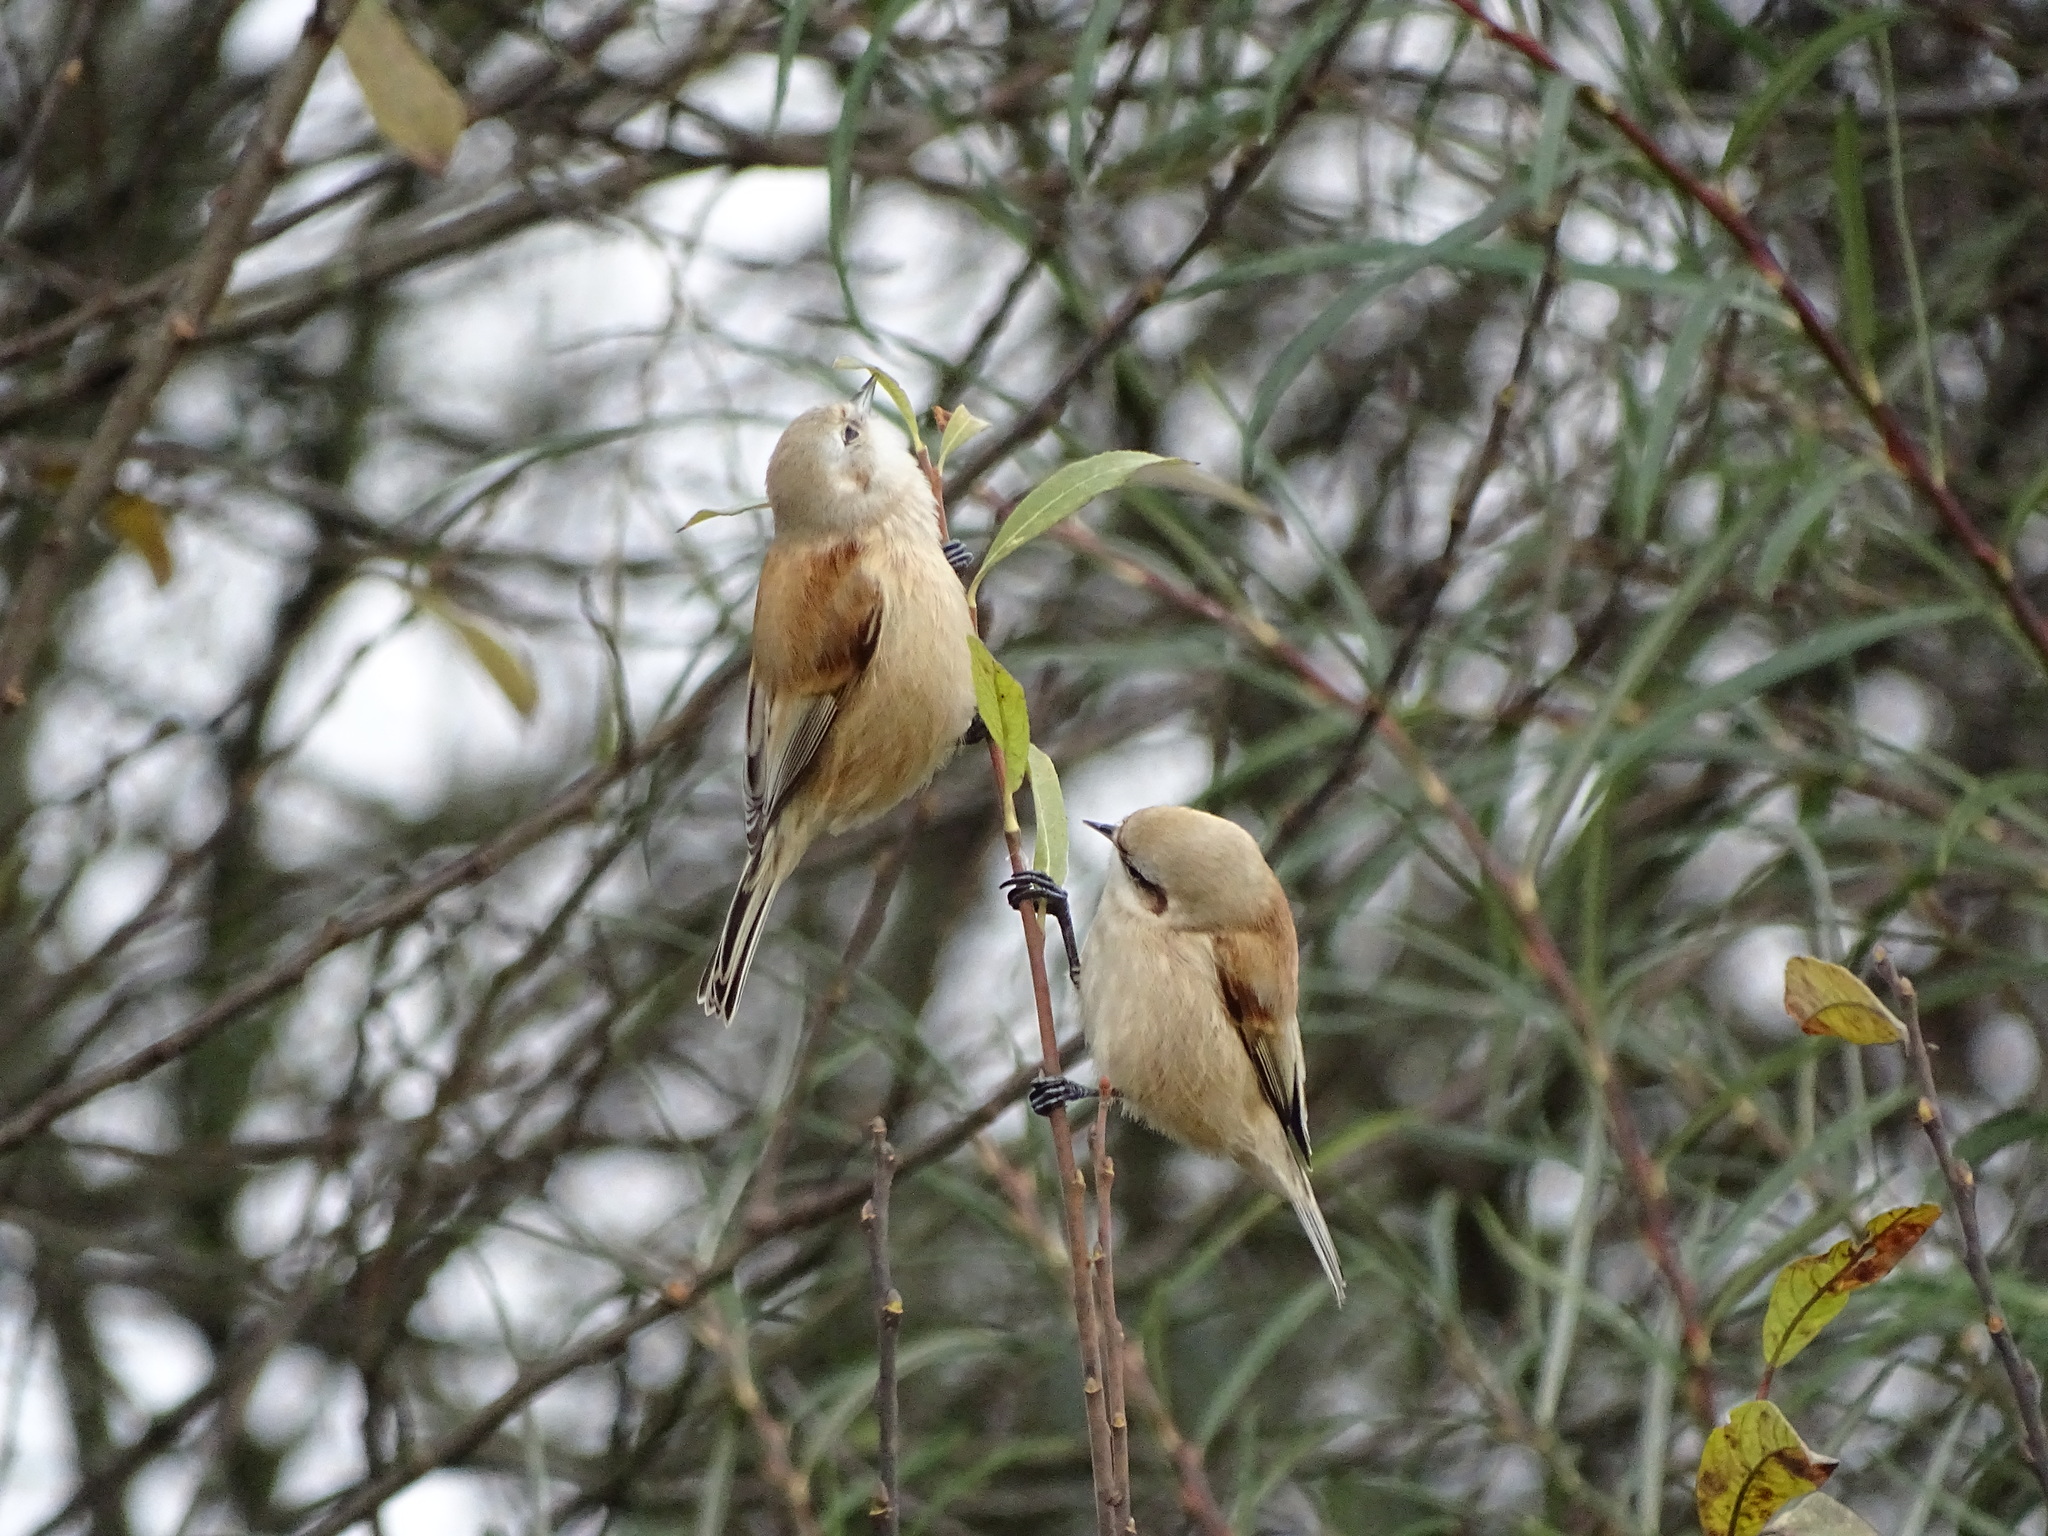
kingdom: Animalia
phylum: Chordata
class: Aves
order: Passeriformes
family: Remizidae
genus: Remiz
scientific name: Remiz pendulinus
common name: Eurasian penduline tit
